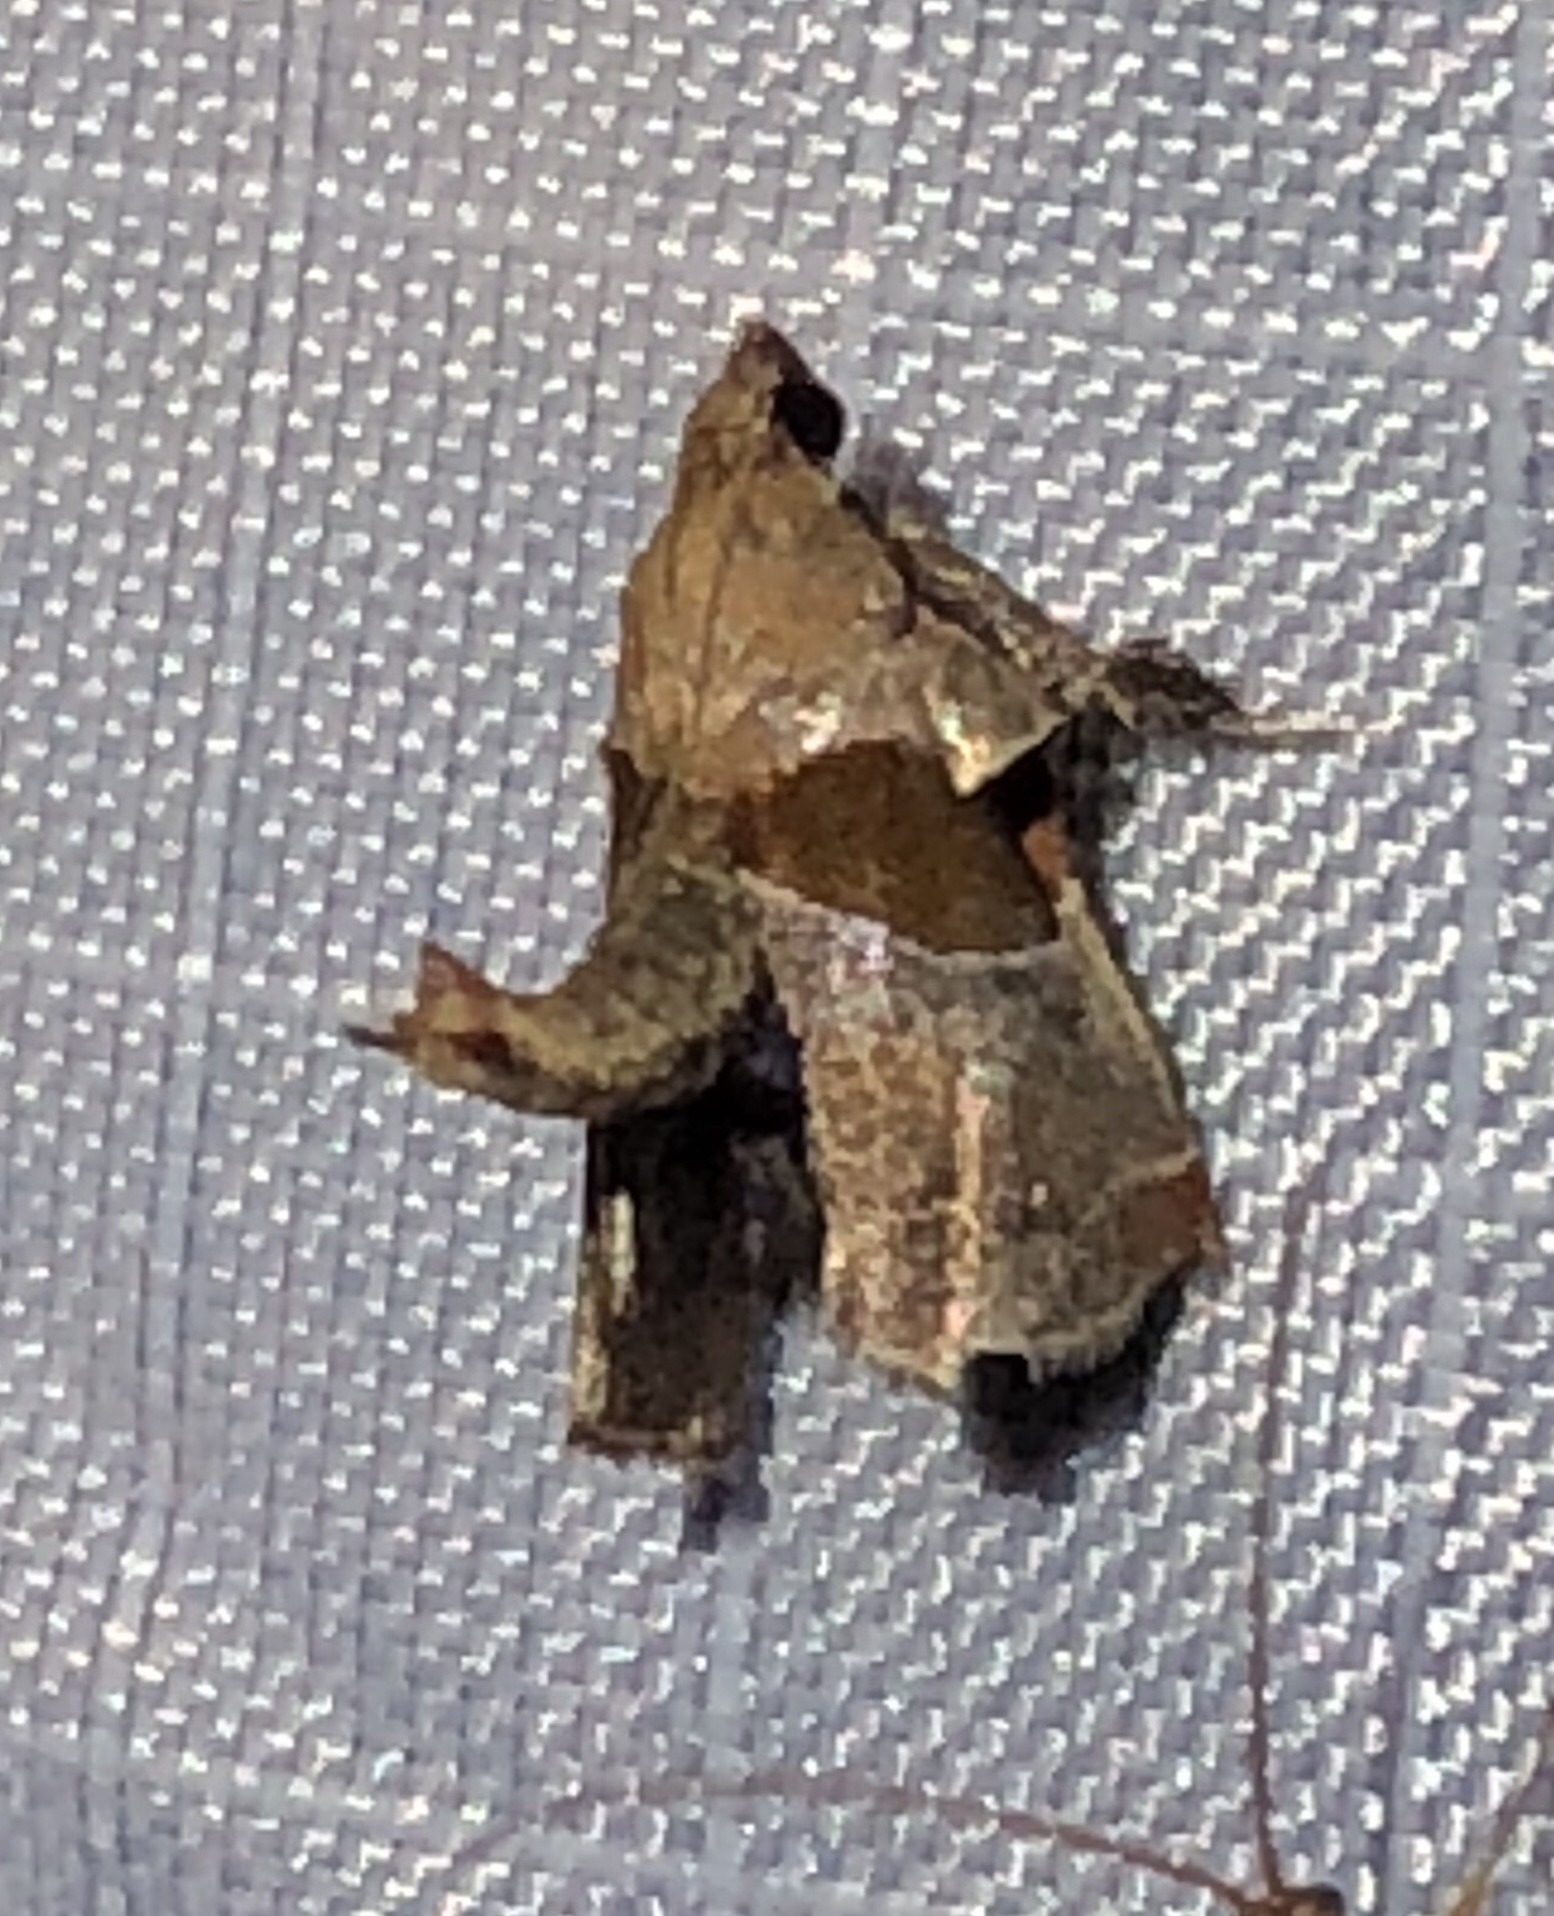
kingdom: Animalia
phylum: Arthropoda
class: Insecta
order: Lepidoptera
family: Pyralidae
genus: Tosale
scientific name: Tosale oviplagalis
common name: Dimorphic tosale moth
